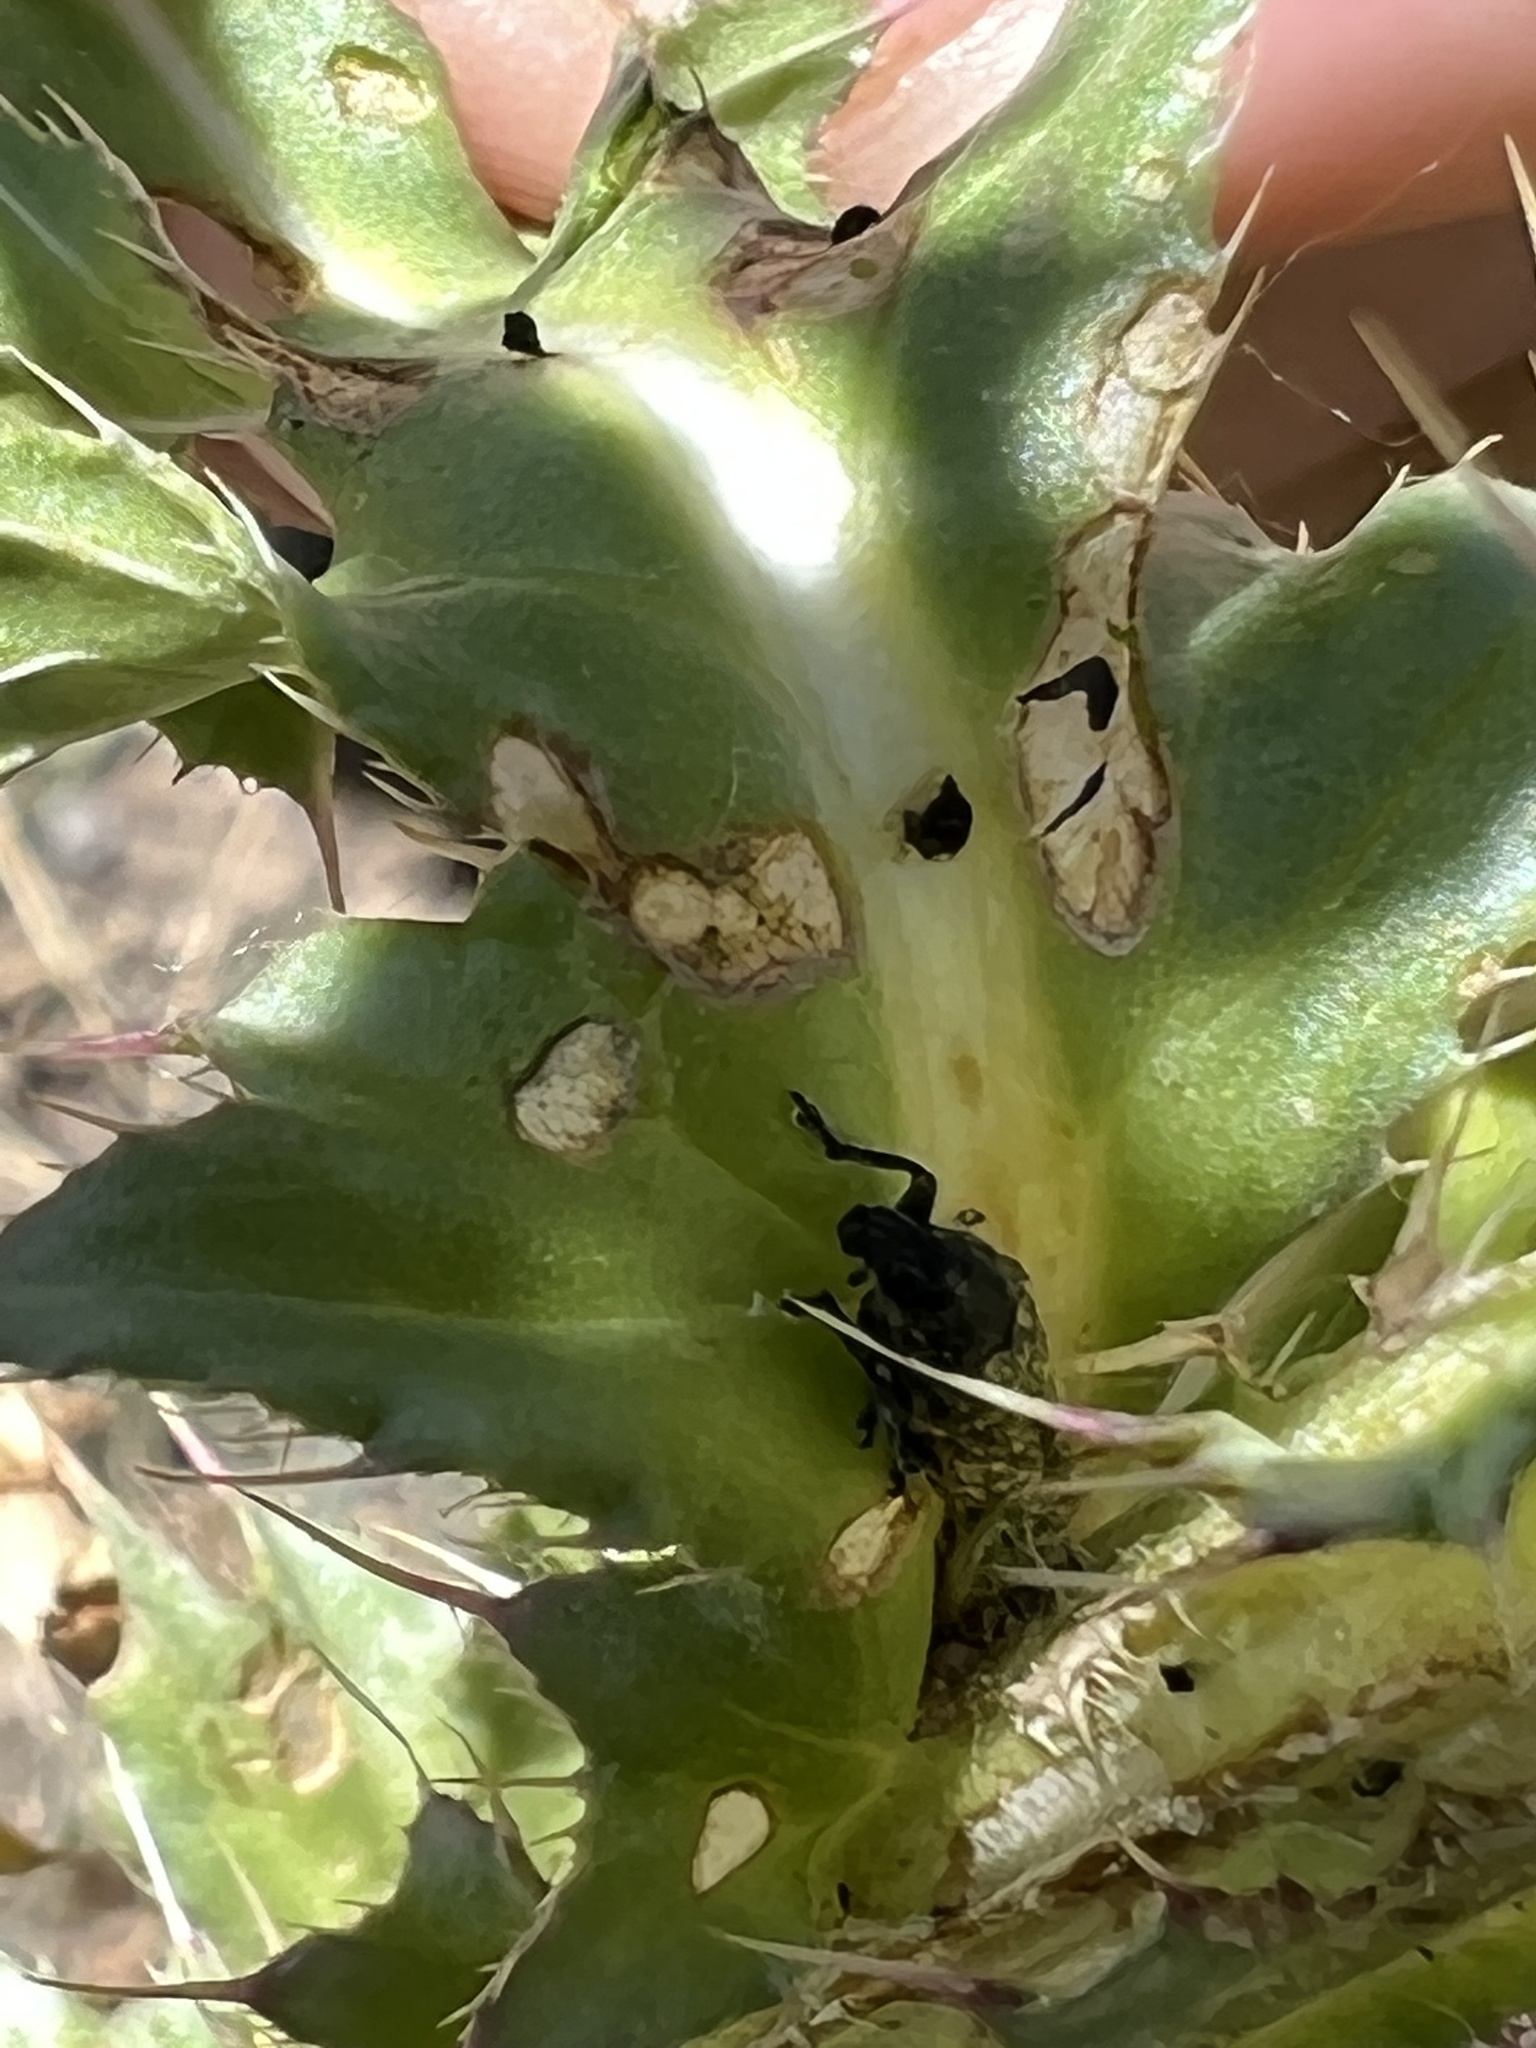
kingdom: Animalia
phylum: Arthropoda
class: Insecta
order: Coleoptera
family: Curculionidae
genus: Rhinocyllus
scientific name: Rhinocyllus conicus
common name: Weevil
